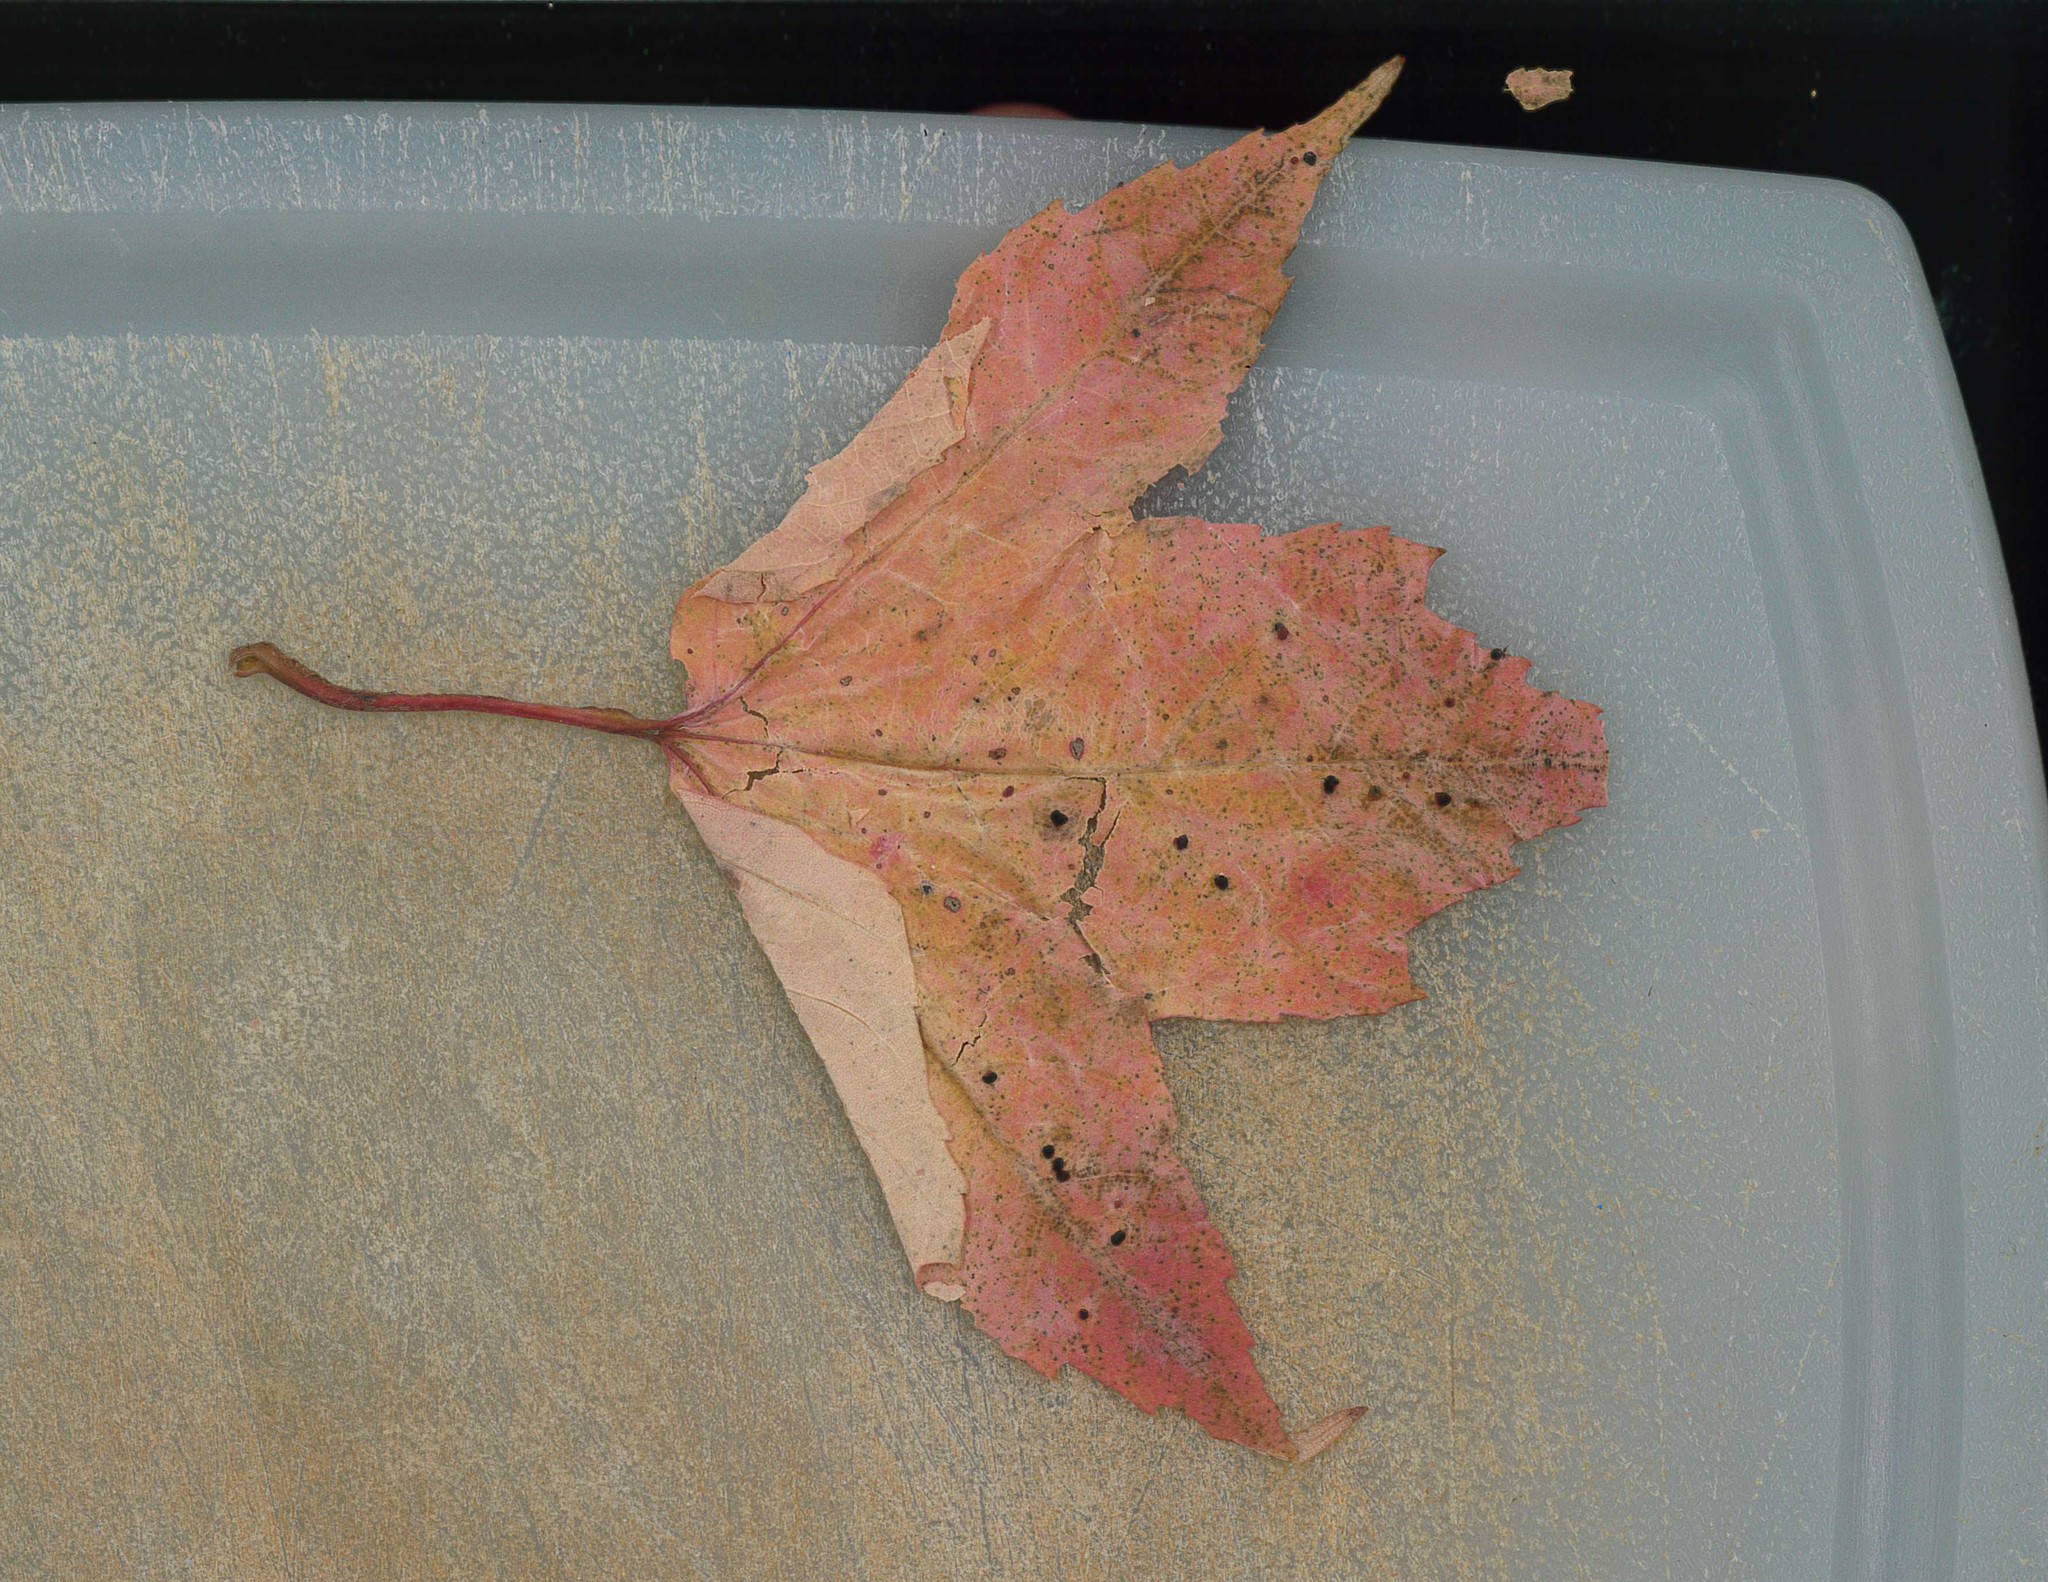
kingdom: Plantae
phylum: Tracheophyta
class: Magnoliopsida
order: Sapindales
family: Sapindaceae
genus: Acer
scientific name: Acer rubrum
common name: Red maple
